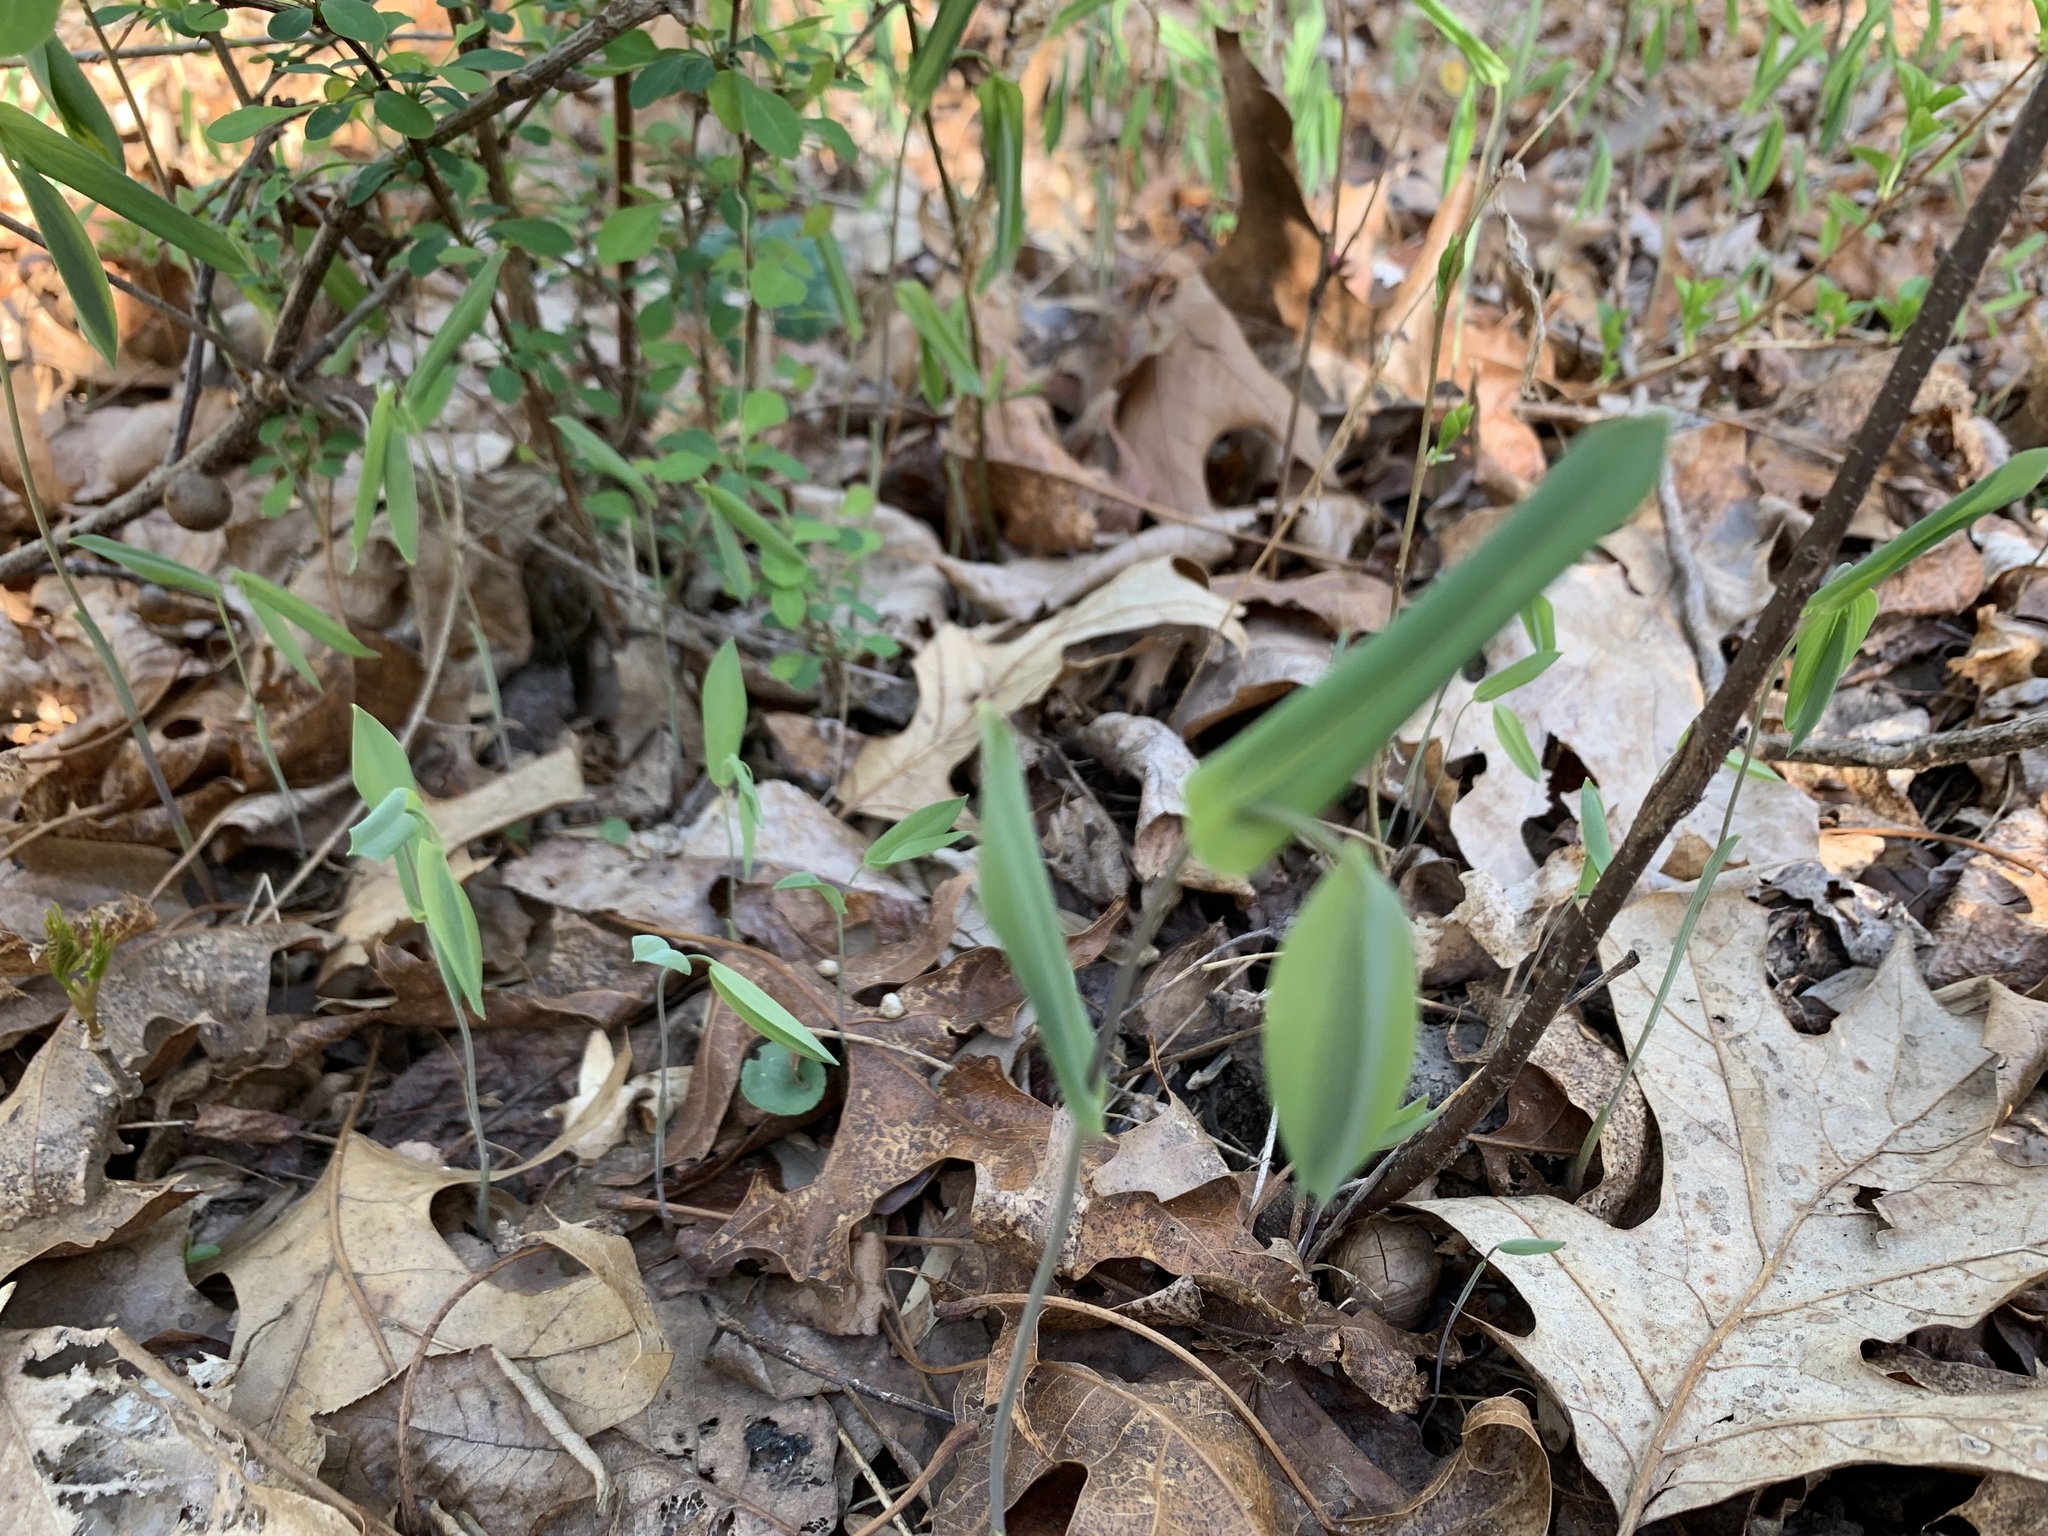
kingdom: Plantae
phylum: Tracheophyta
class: Liliopsida
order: Liliales
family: Colchicaceae
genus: Uvularia
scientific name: Uvularia perfoliata
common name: Perfoliate bellwort
